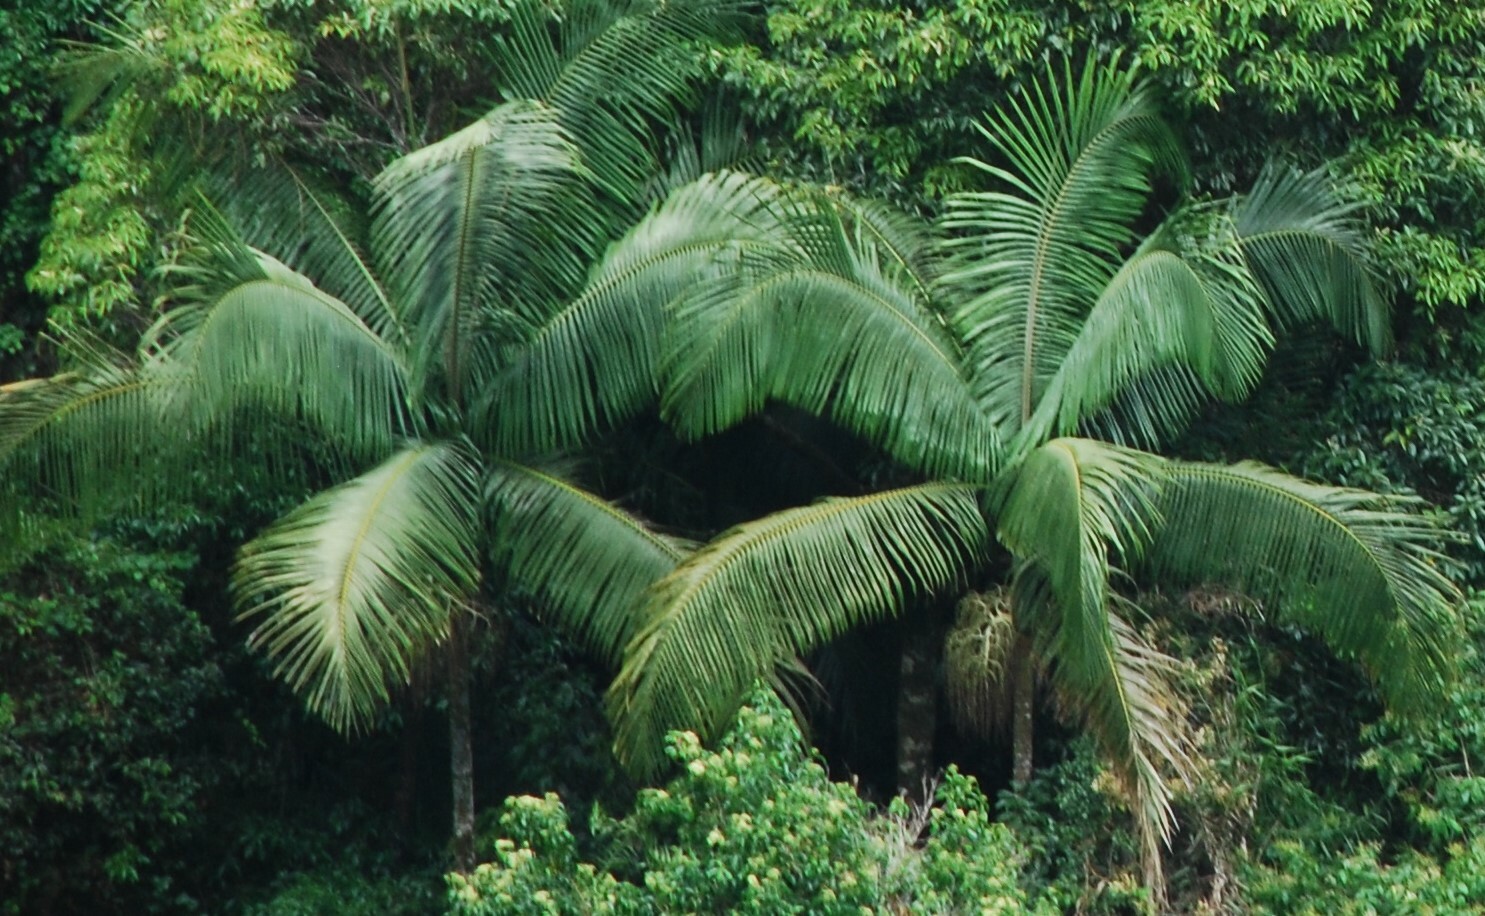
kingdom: Plantae
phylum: Tracheophyta
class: Liliopsida
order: Arecales
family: Arecaceae
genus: Archontophoenix
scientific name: Archontophoenix cunninghamiana
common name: Piccabeen bangalow palm
